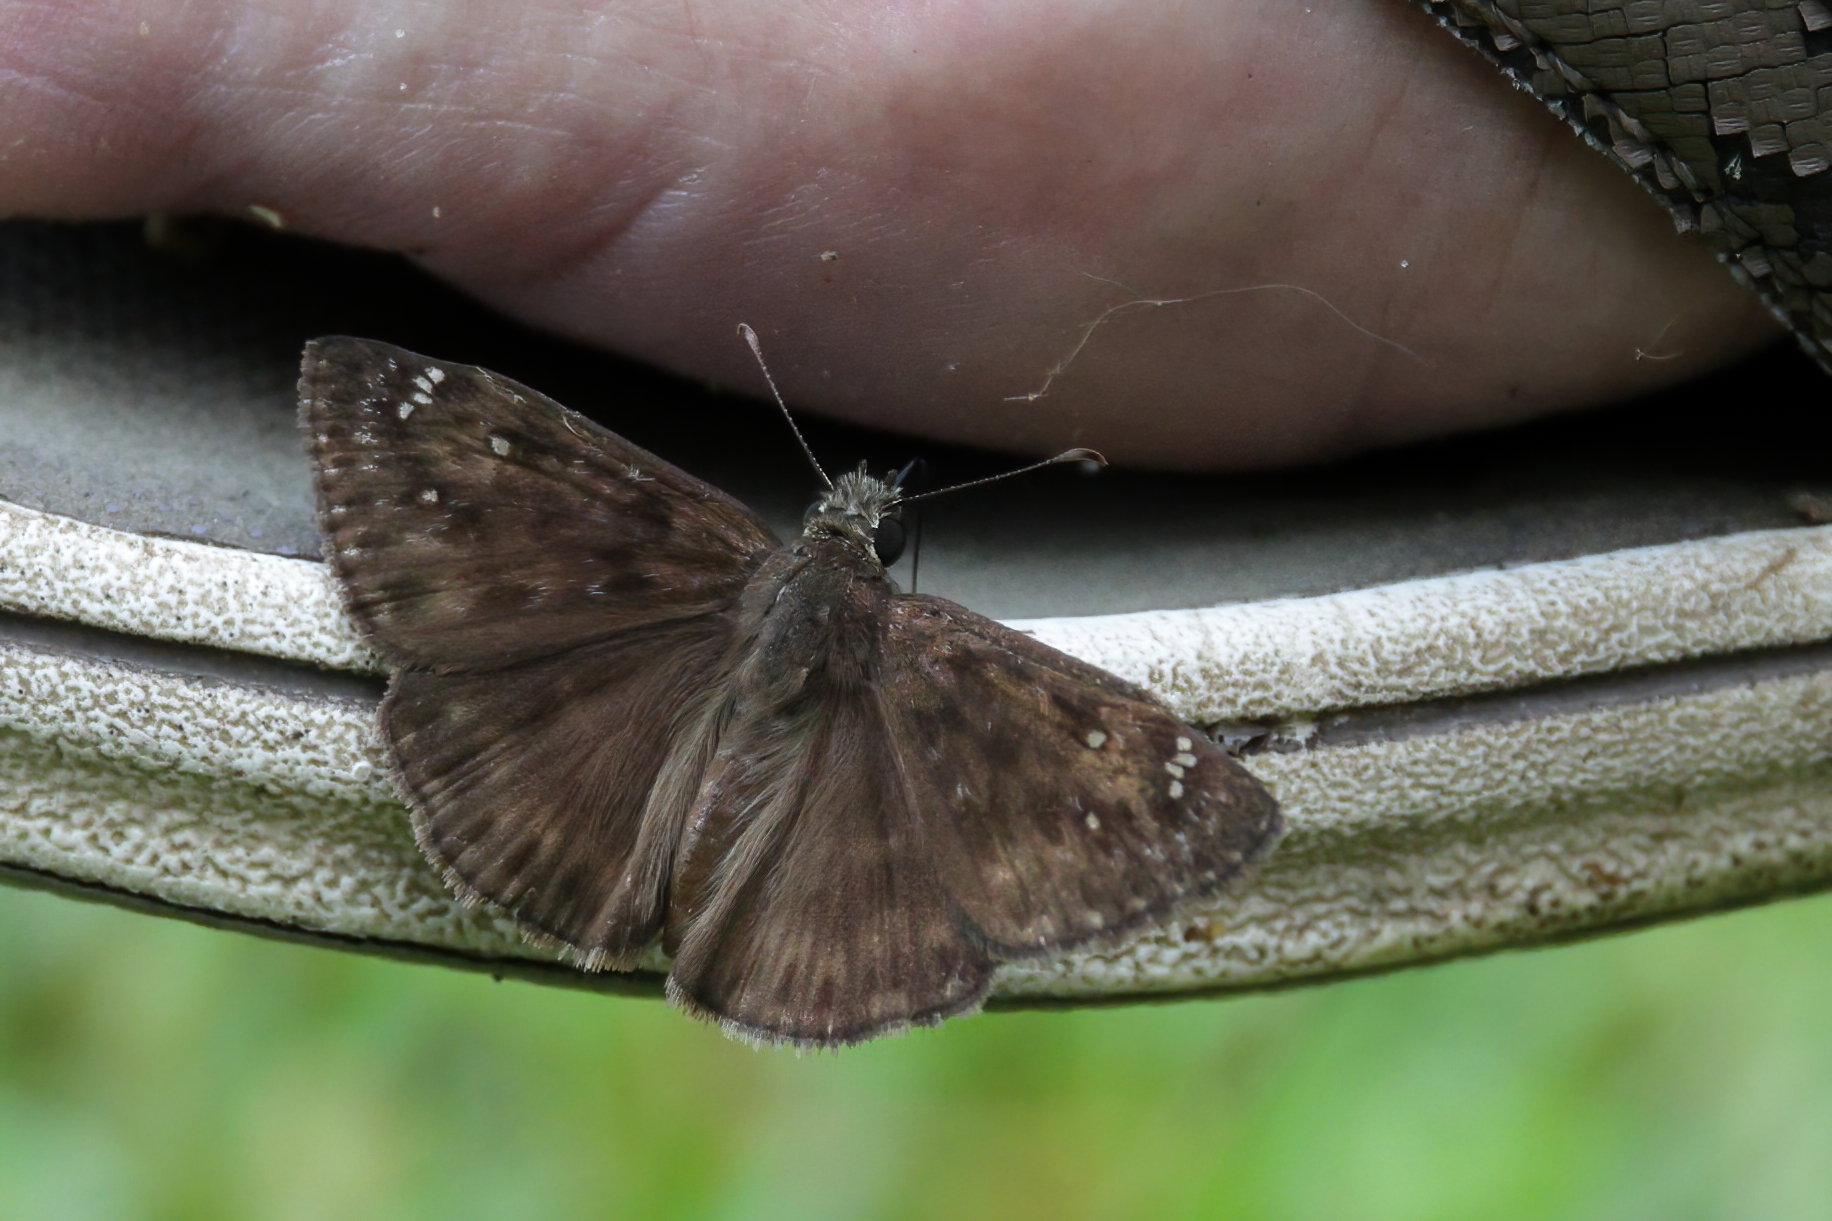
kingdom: Animalia
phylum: Arthropoda
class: Insecta
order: Lepidoptera
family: Hesperiidae
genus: Erynnis
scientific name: Erynnis horatius
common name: Horace's duskywing
